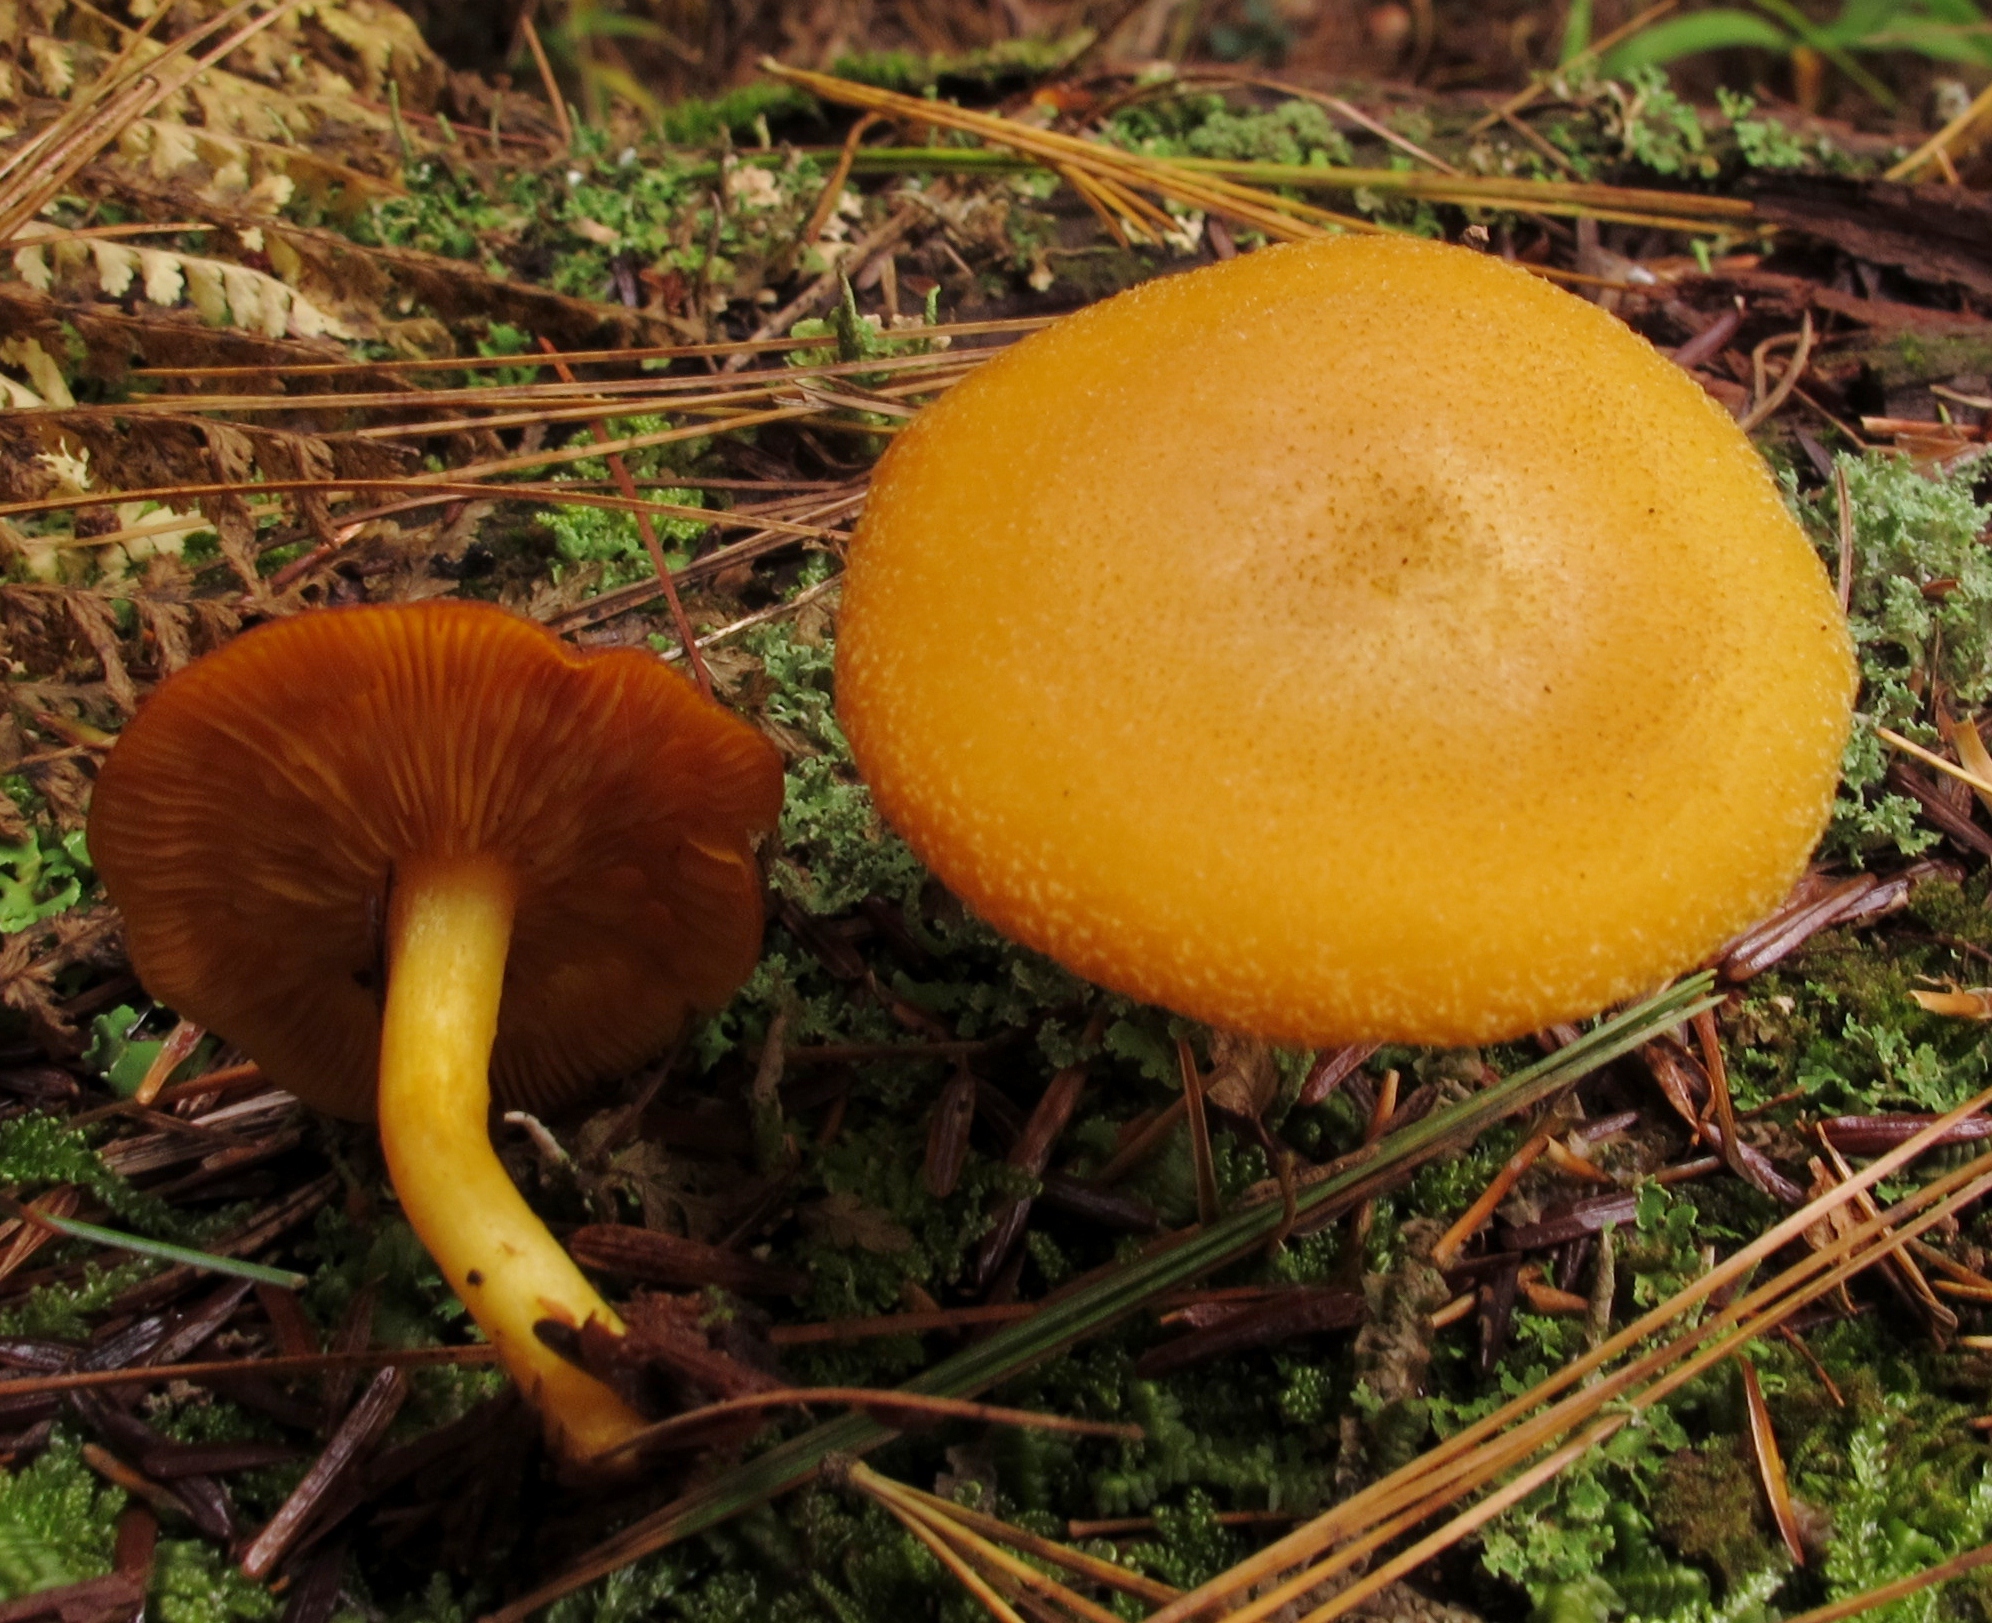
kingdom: Fungi
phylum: Basidiomycota
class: Agaricomycetes
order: Agaricales
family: Tricholomataceae
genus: Tricholomopsis
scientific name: Tricholomopsis decora
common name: Prunes and custard
